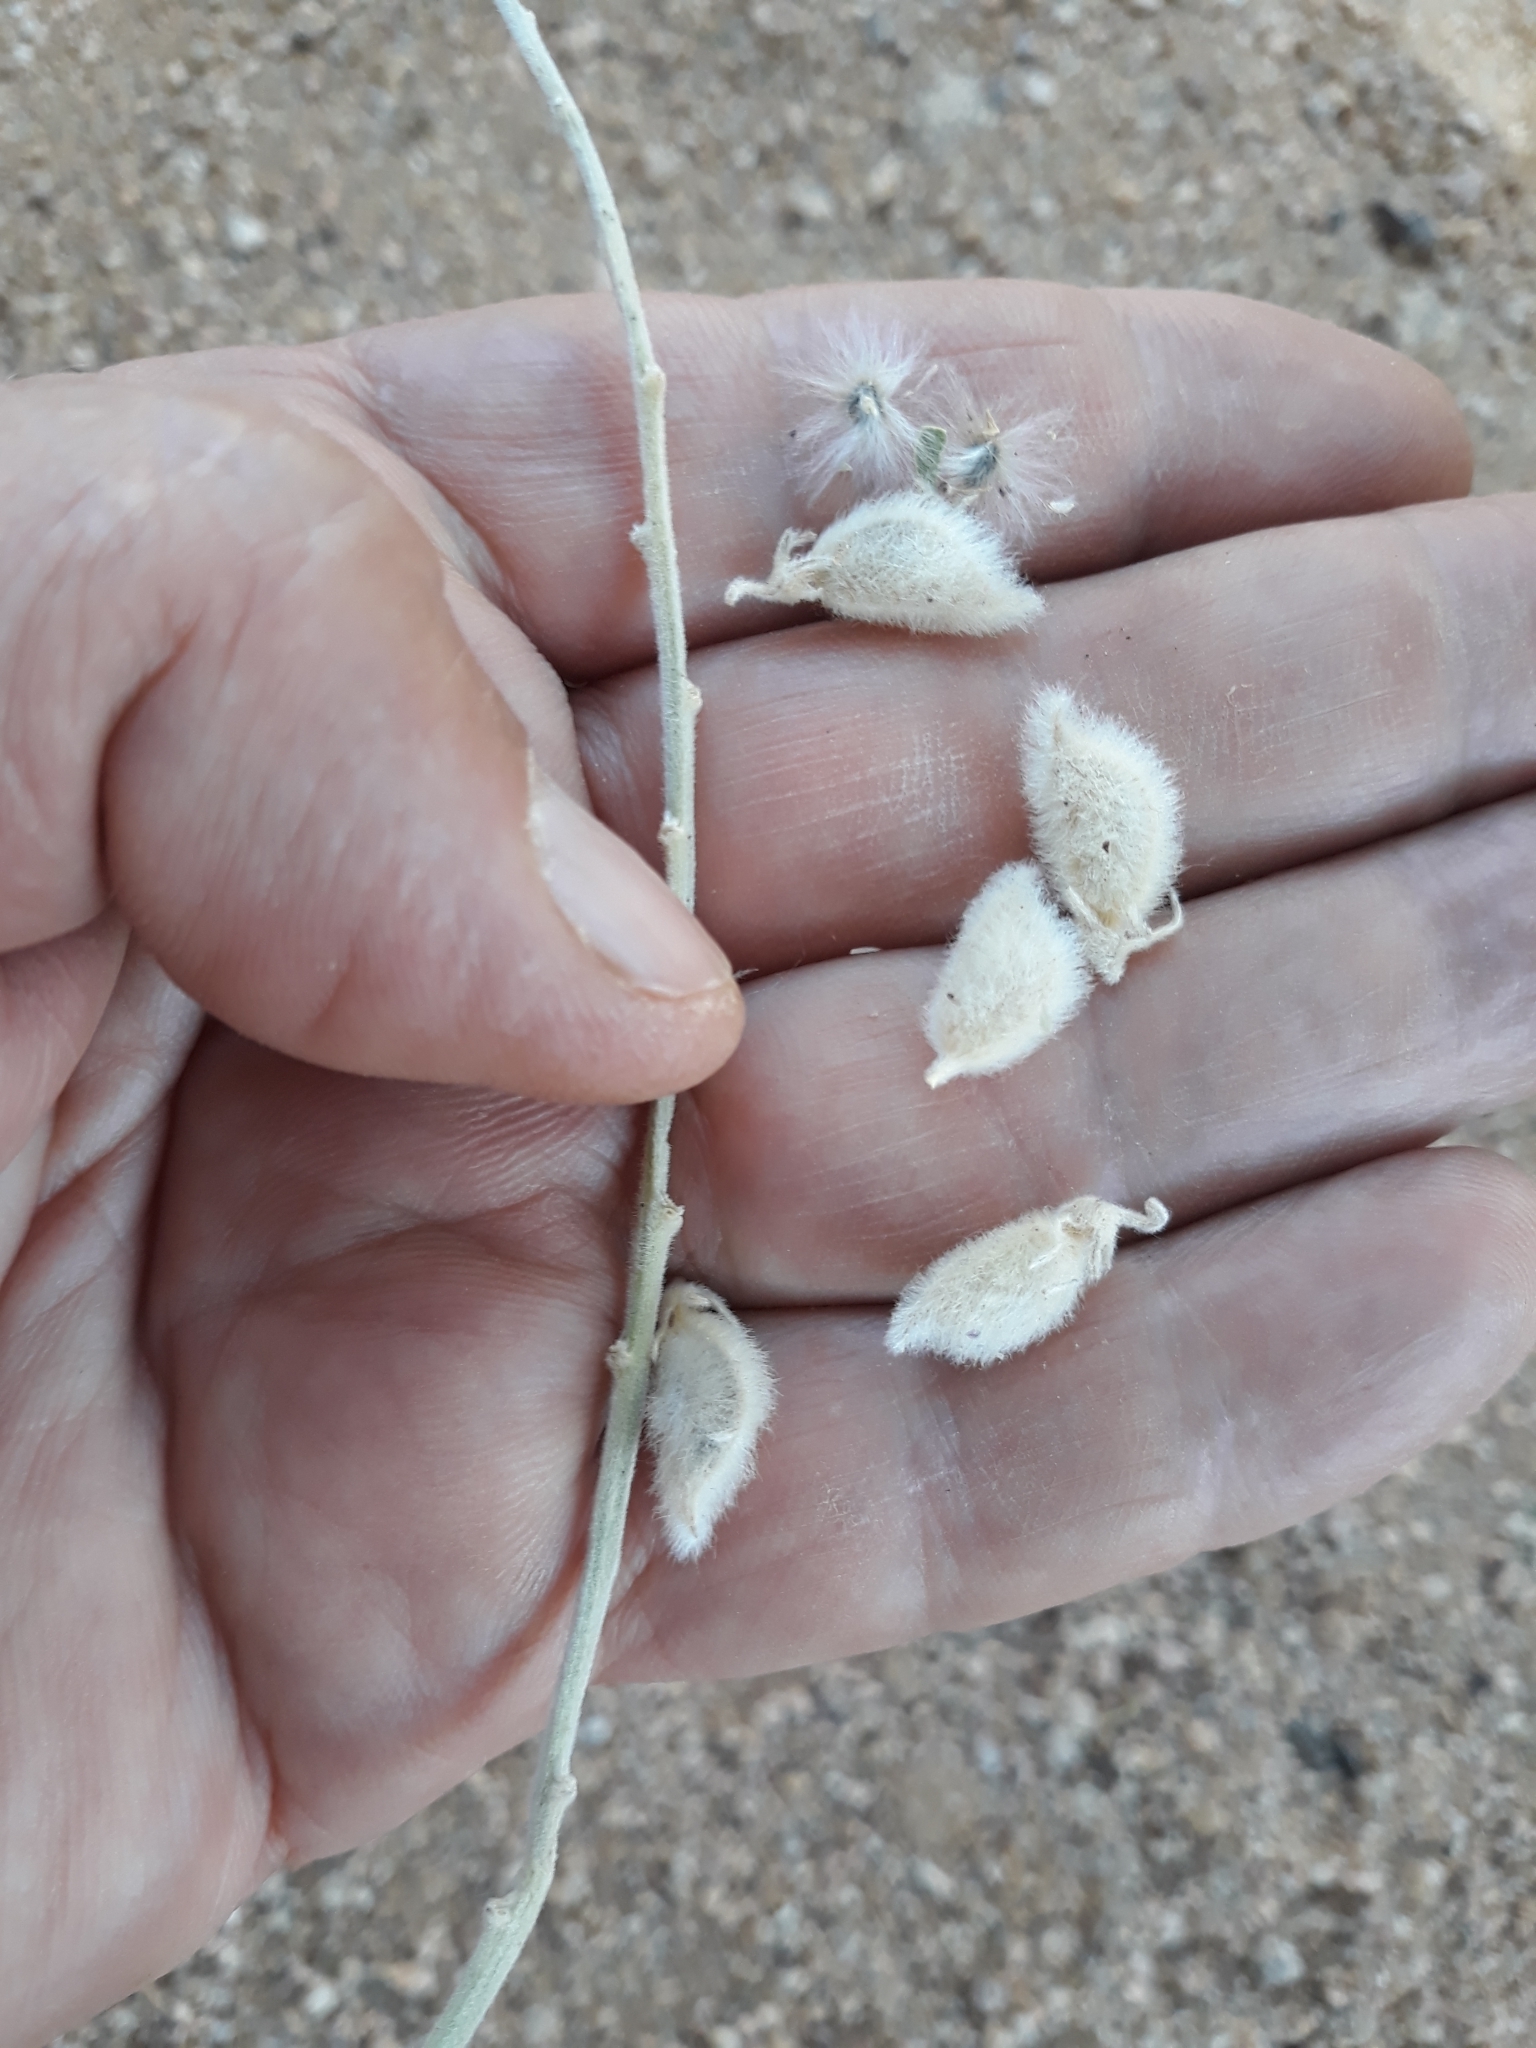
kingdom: Plantae
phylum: Tracheophyta
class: Magnoliopsida
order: Fabales
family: Fabaceae
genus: Crotalaria
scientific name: Crotalaria saharae
